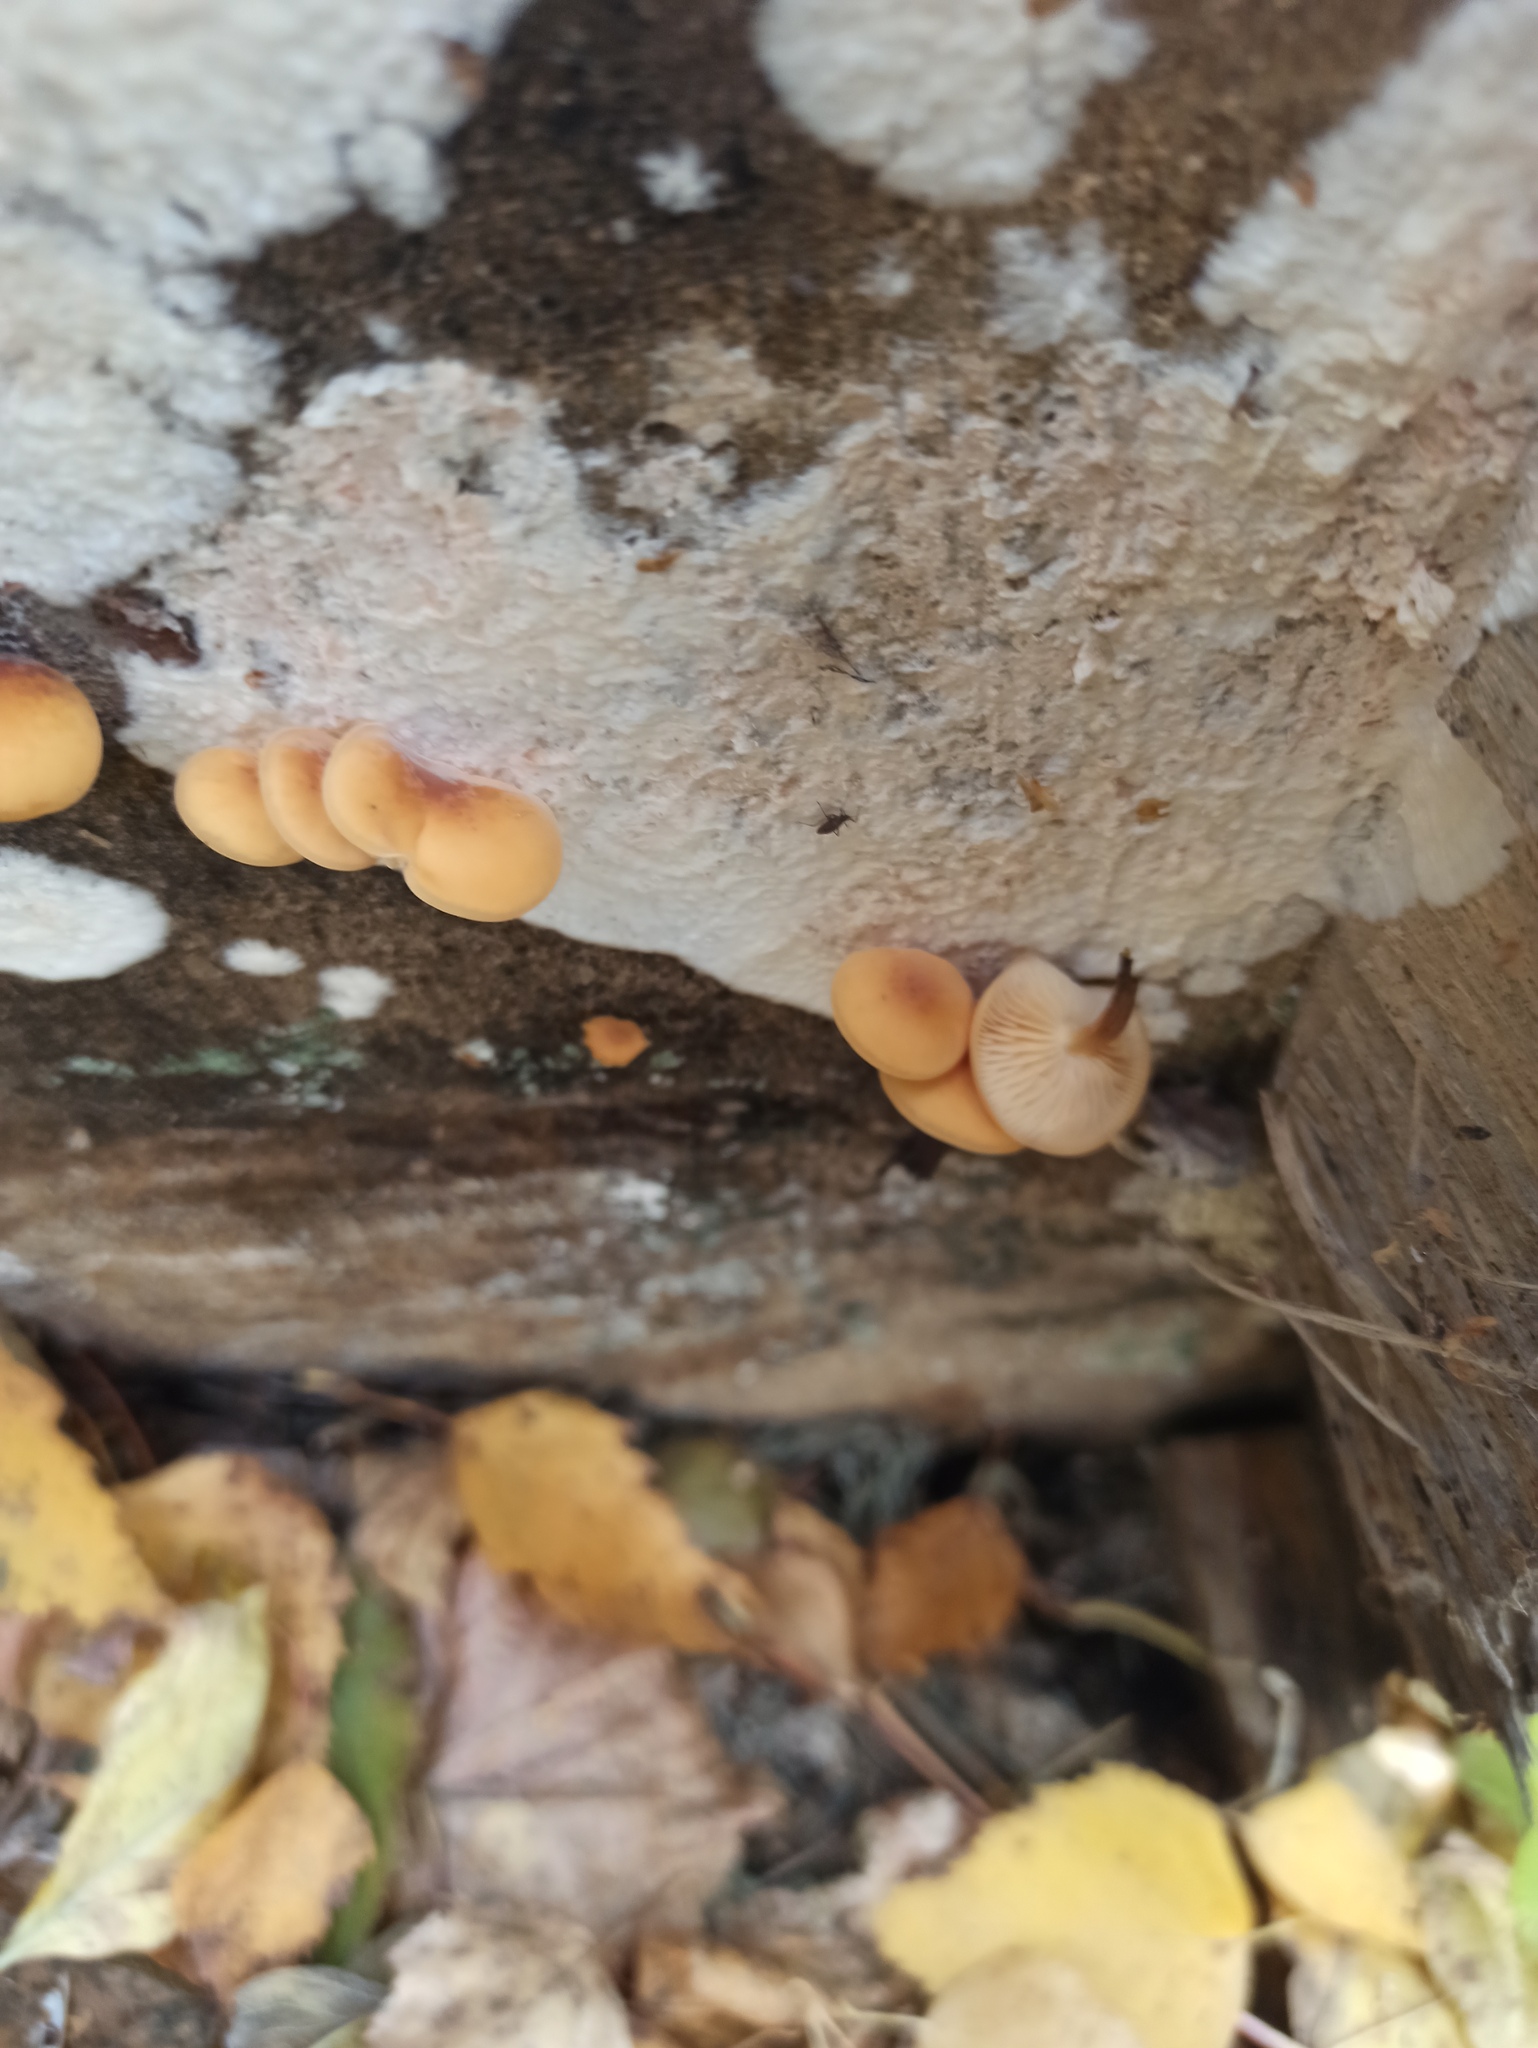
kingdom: Fungi
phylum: Basidiomycota
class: Agaricomycetes
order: Agaricales
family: Physalacriaceae
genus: Flammulina
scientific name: Flammulina
